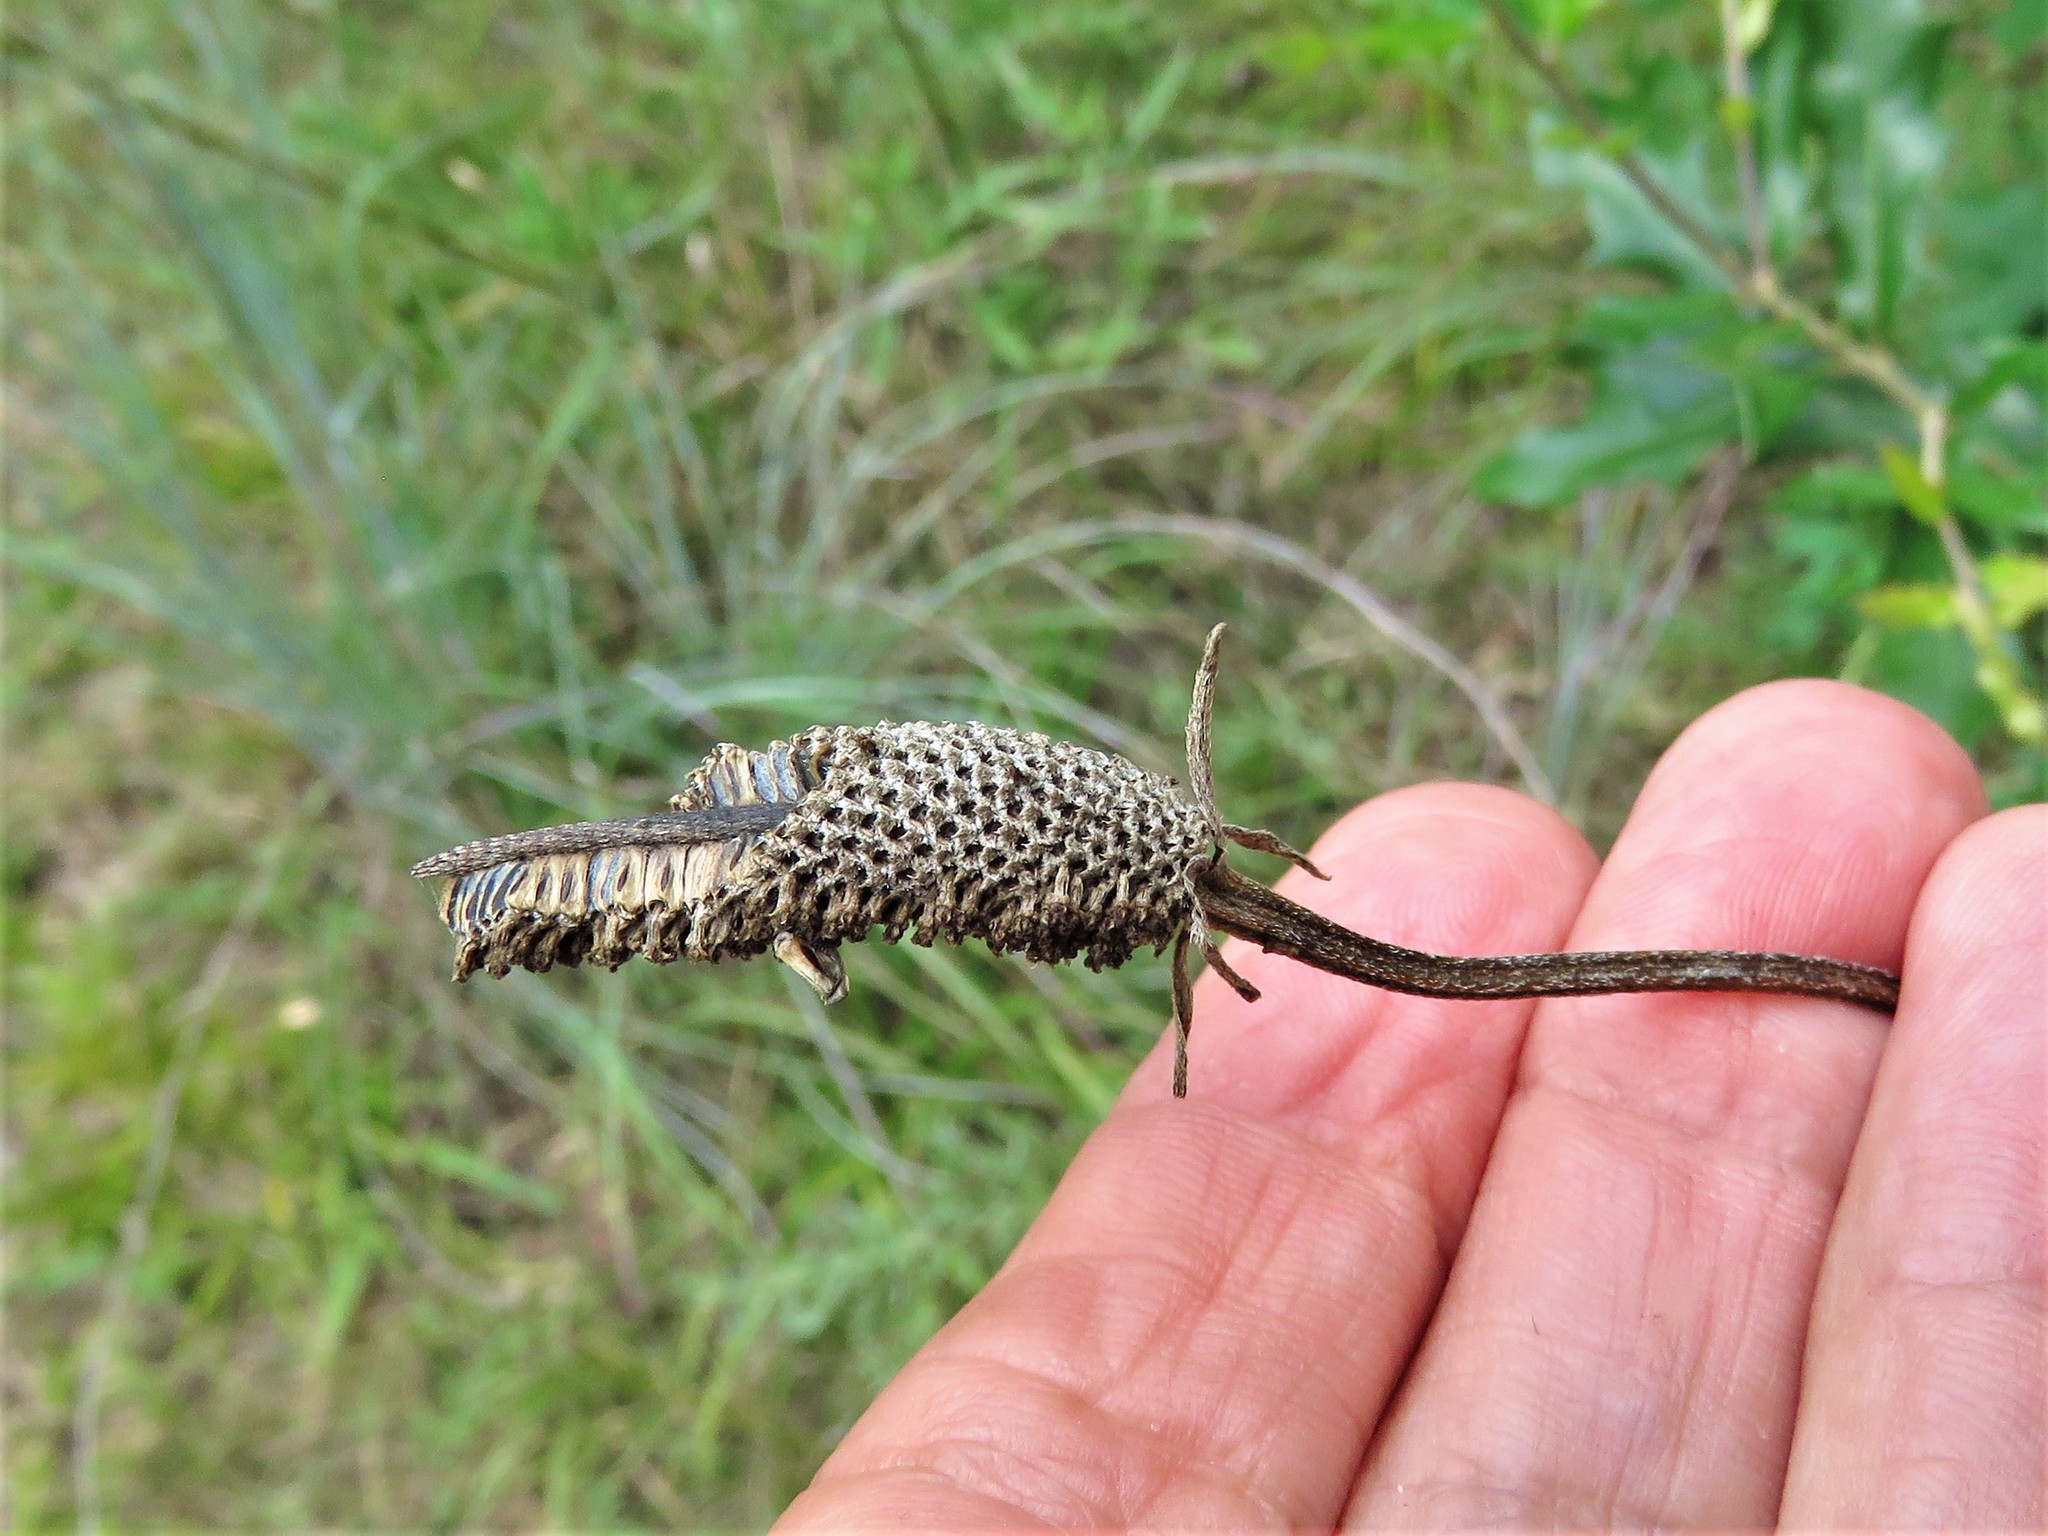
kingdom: Plantae
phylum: Tracheophyta
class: Magnoliopsida
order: Asterales
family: Asteraceae
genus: Ratibida
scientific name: Ratibida columnifera
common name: Prairie coneflower
